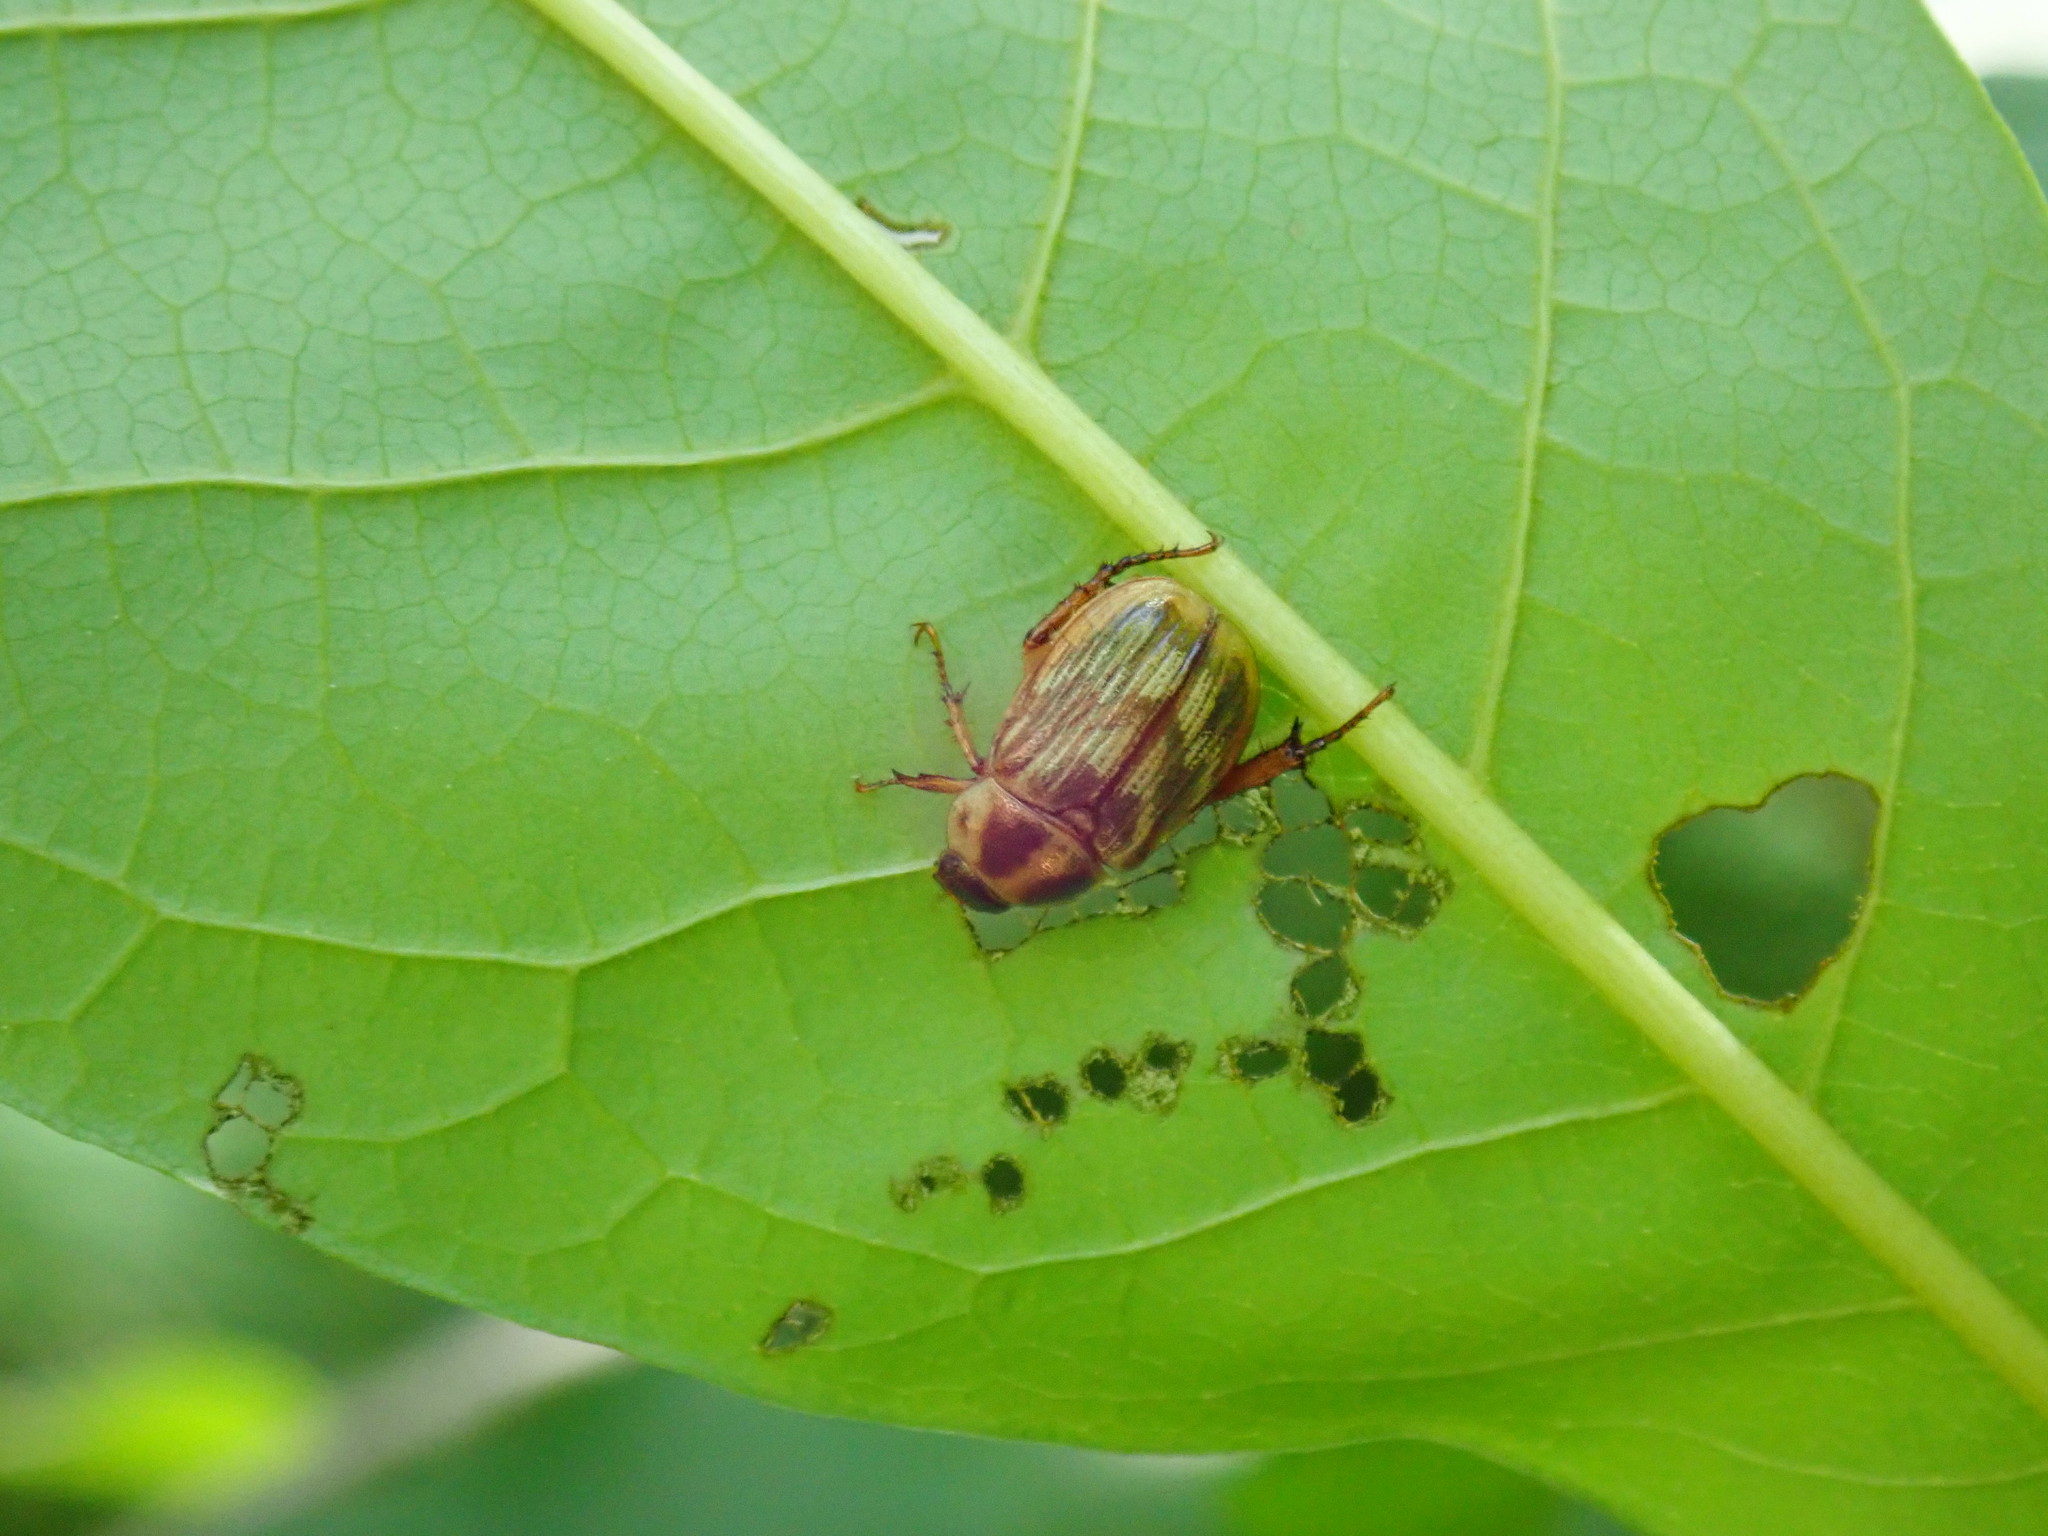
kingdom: Animalia
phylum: Arthropoda
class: Insecta
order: Coleoptera
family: Scarabaeidae
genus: Exomala
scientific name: Exomala orientalis
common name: Oriental beetle
